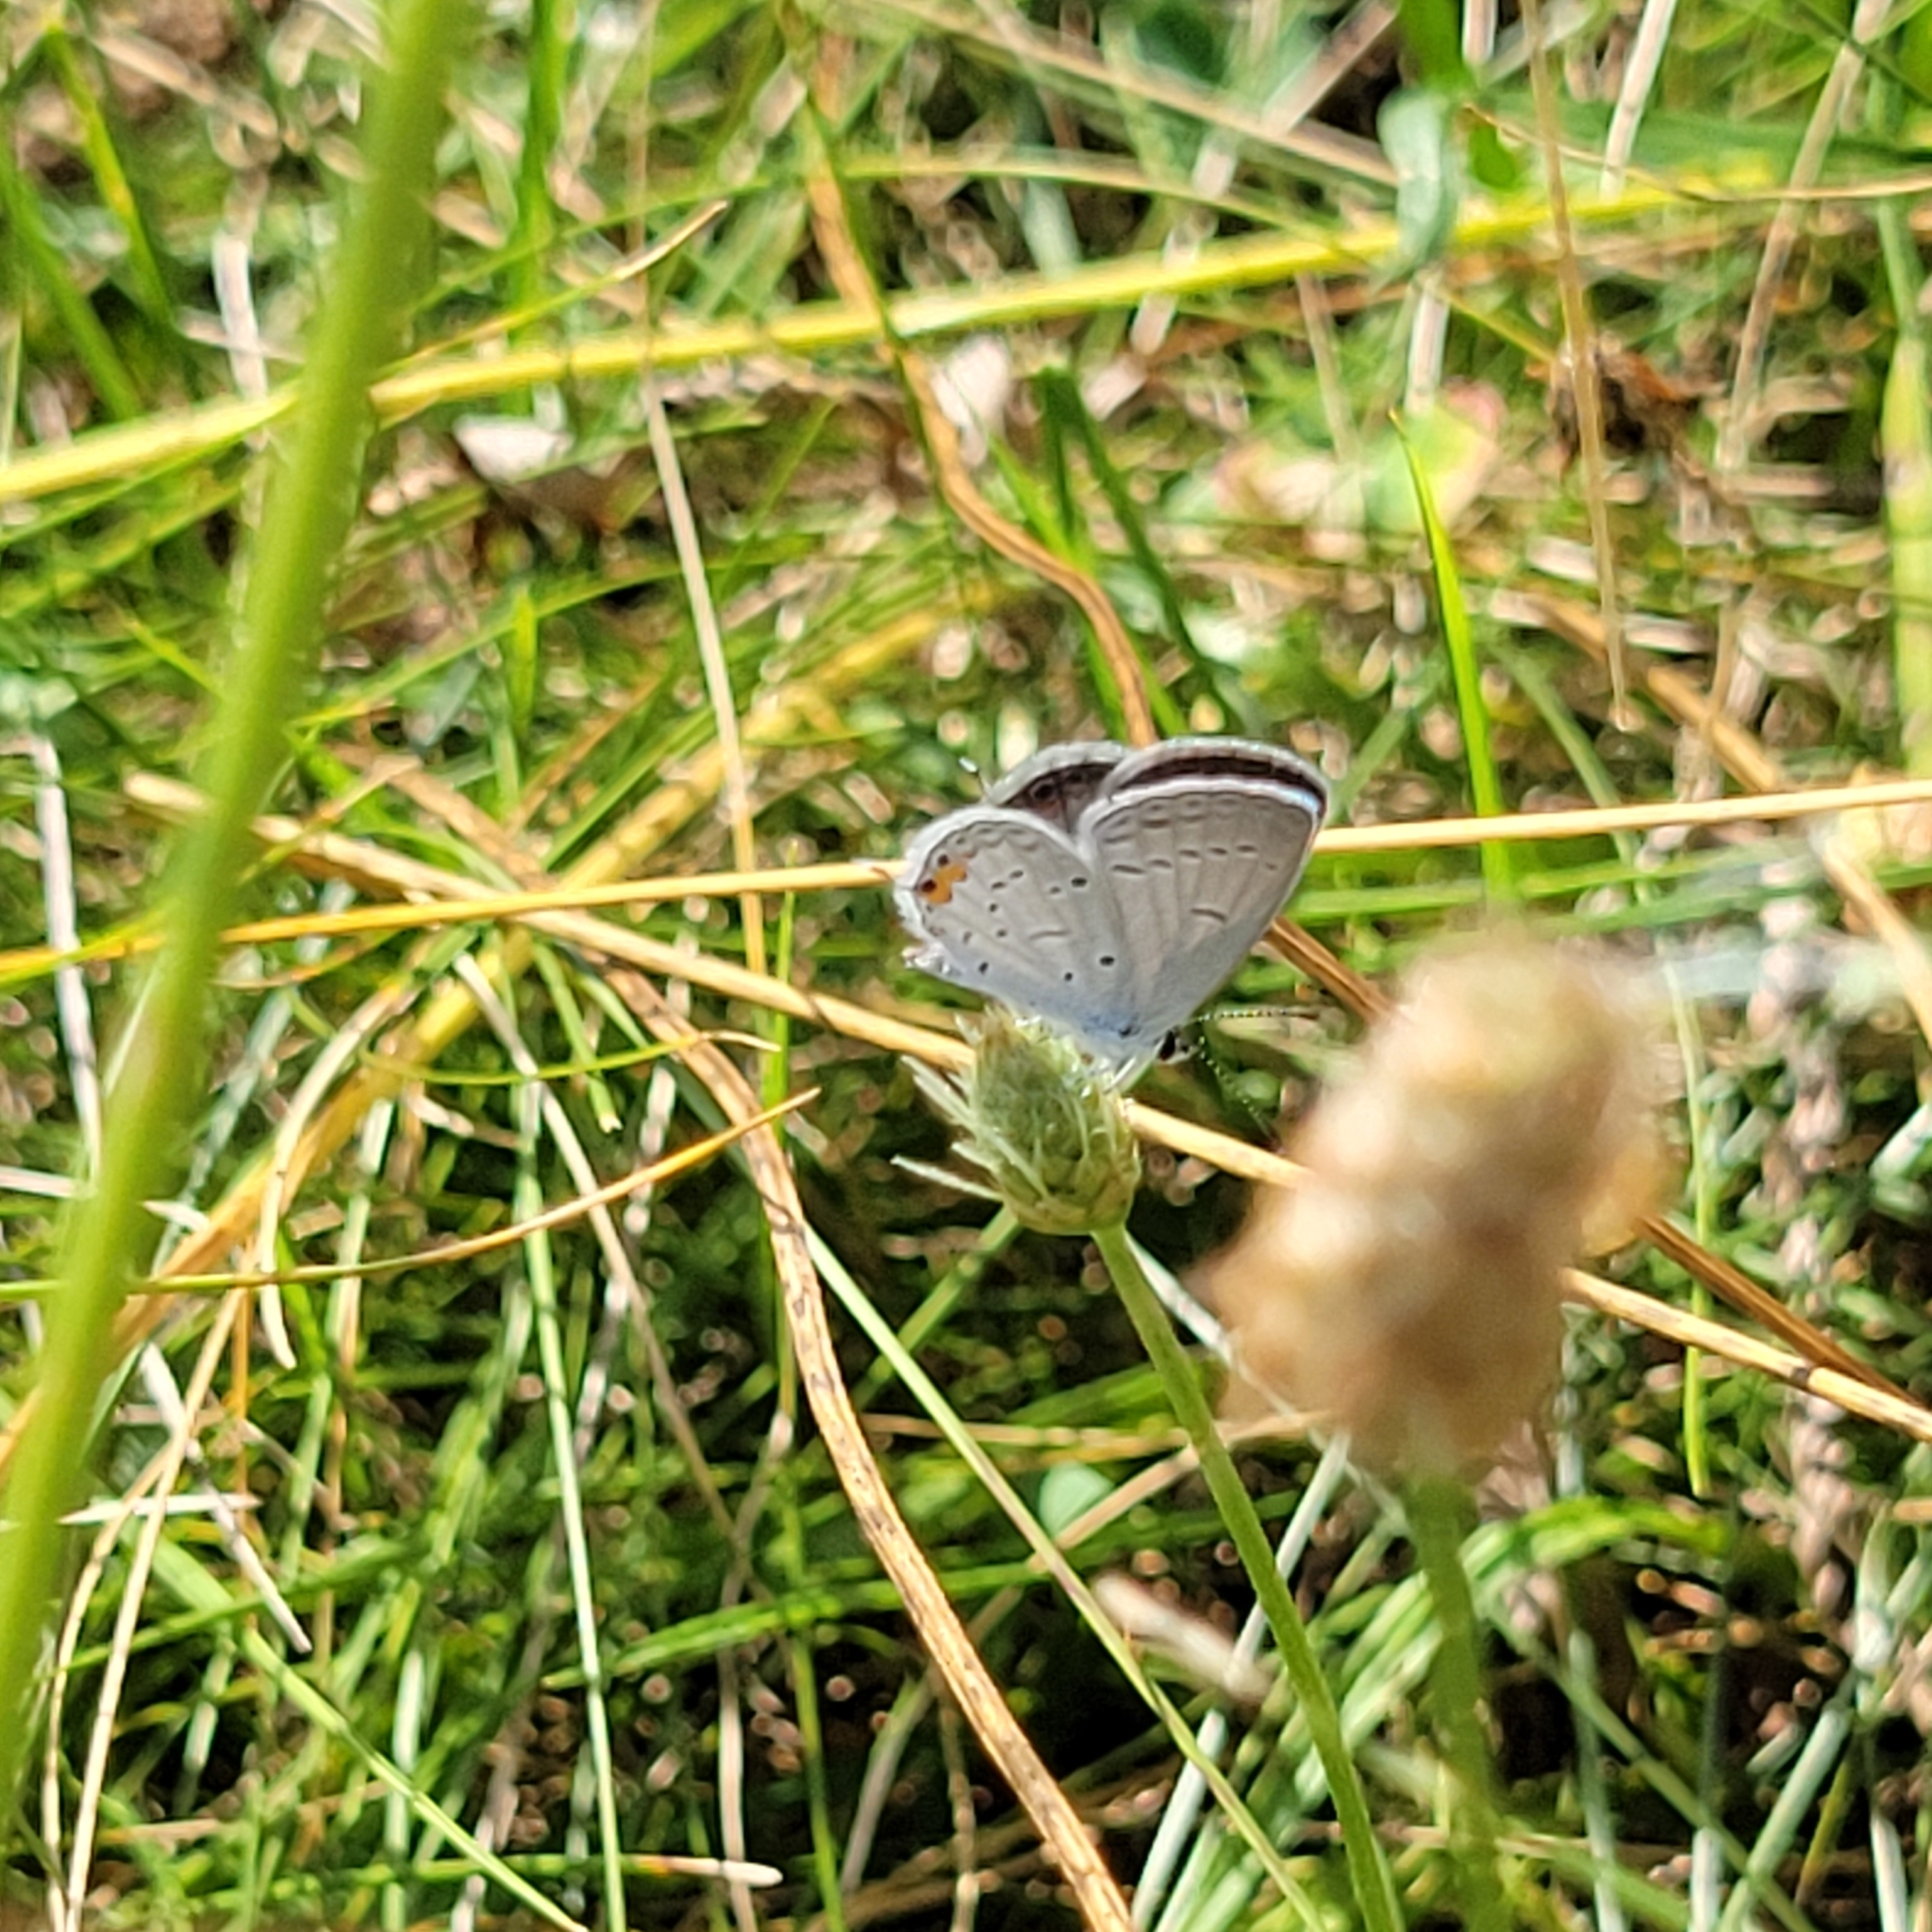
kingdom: Animalia
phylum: Arthropoda
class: Insecta
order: Lepidoptera
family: Lycaenidae
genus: Elkalyce
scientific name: Elkalyce comyntas
